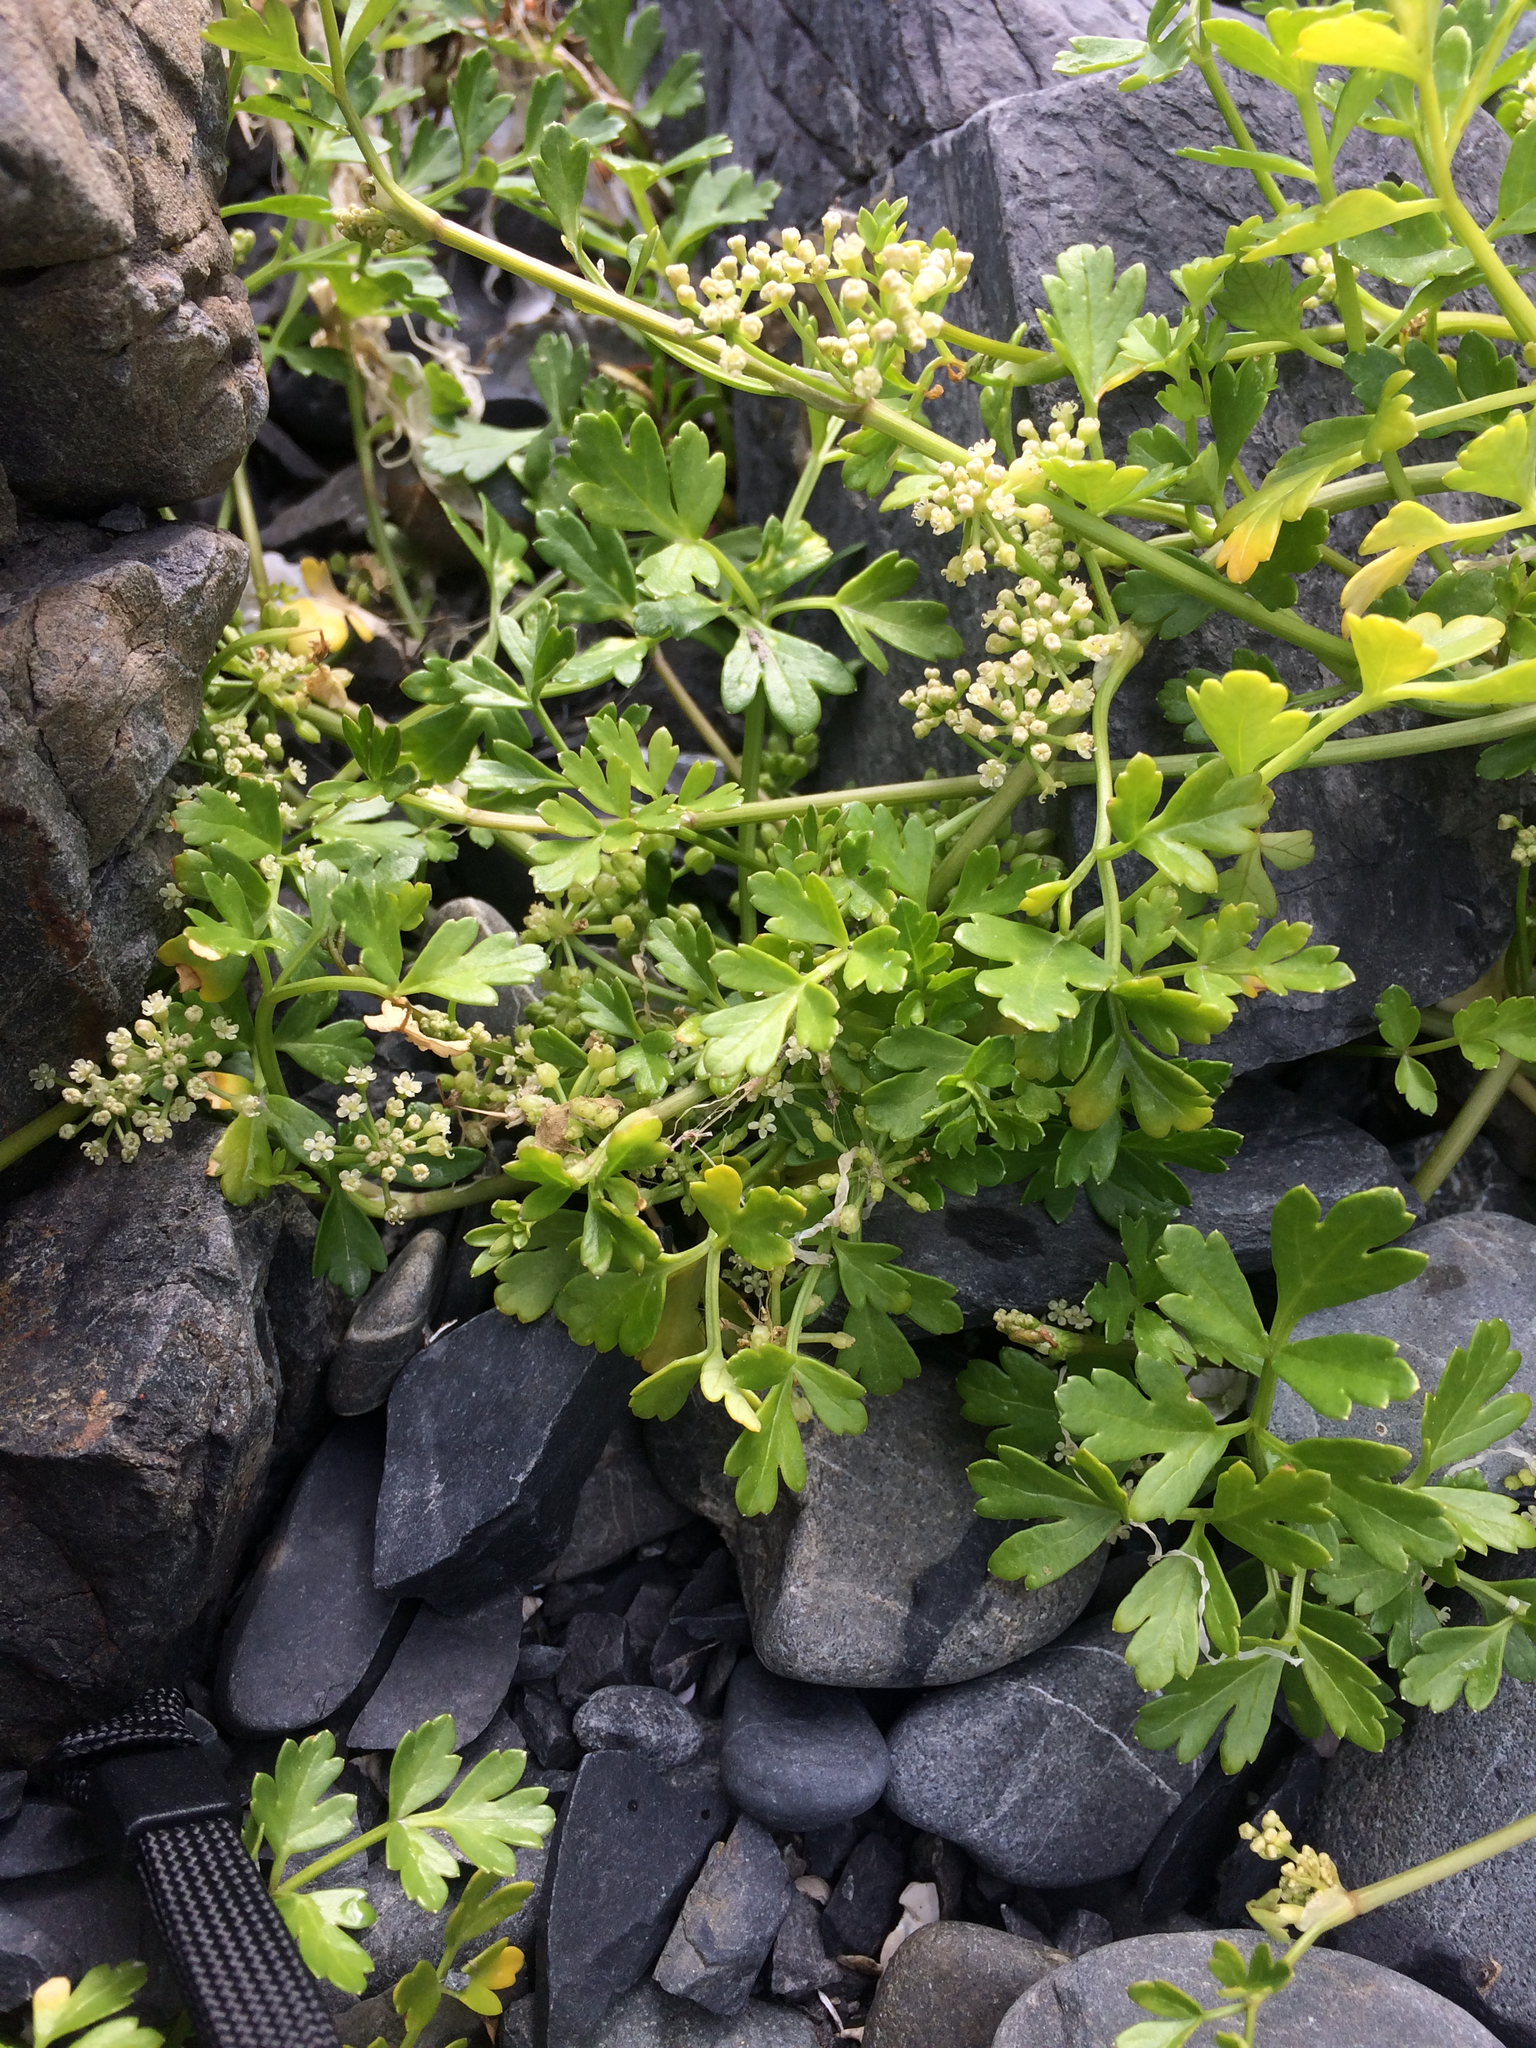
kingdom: Plantae
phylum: Tracheophyta
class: Magnoliopsida
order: Apiales
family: Apiaceae
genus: Apium
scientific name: Apium prostratum
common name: Prostrate marshwort
